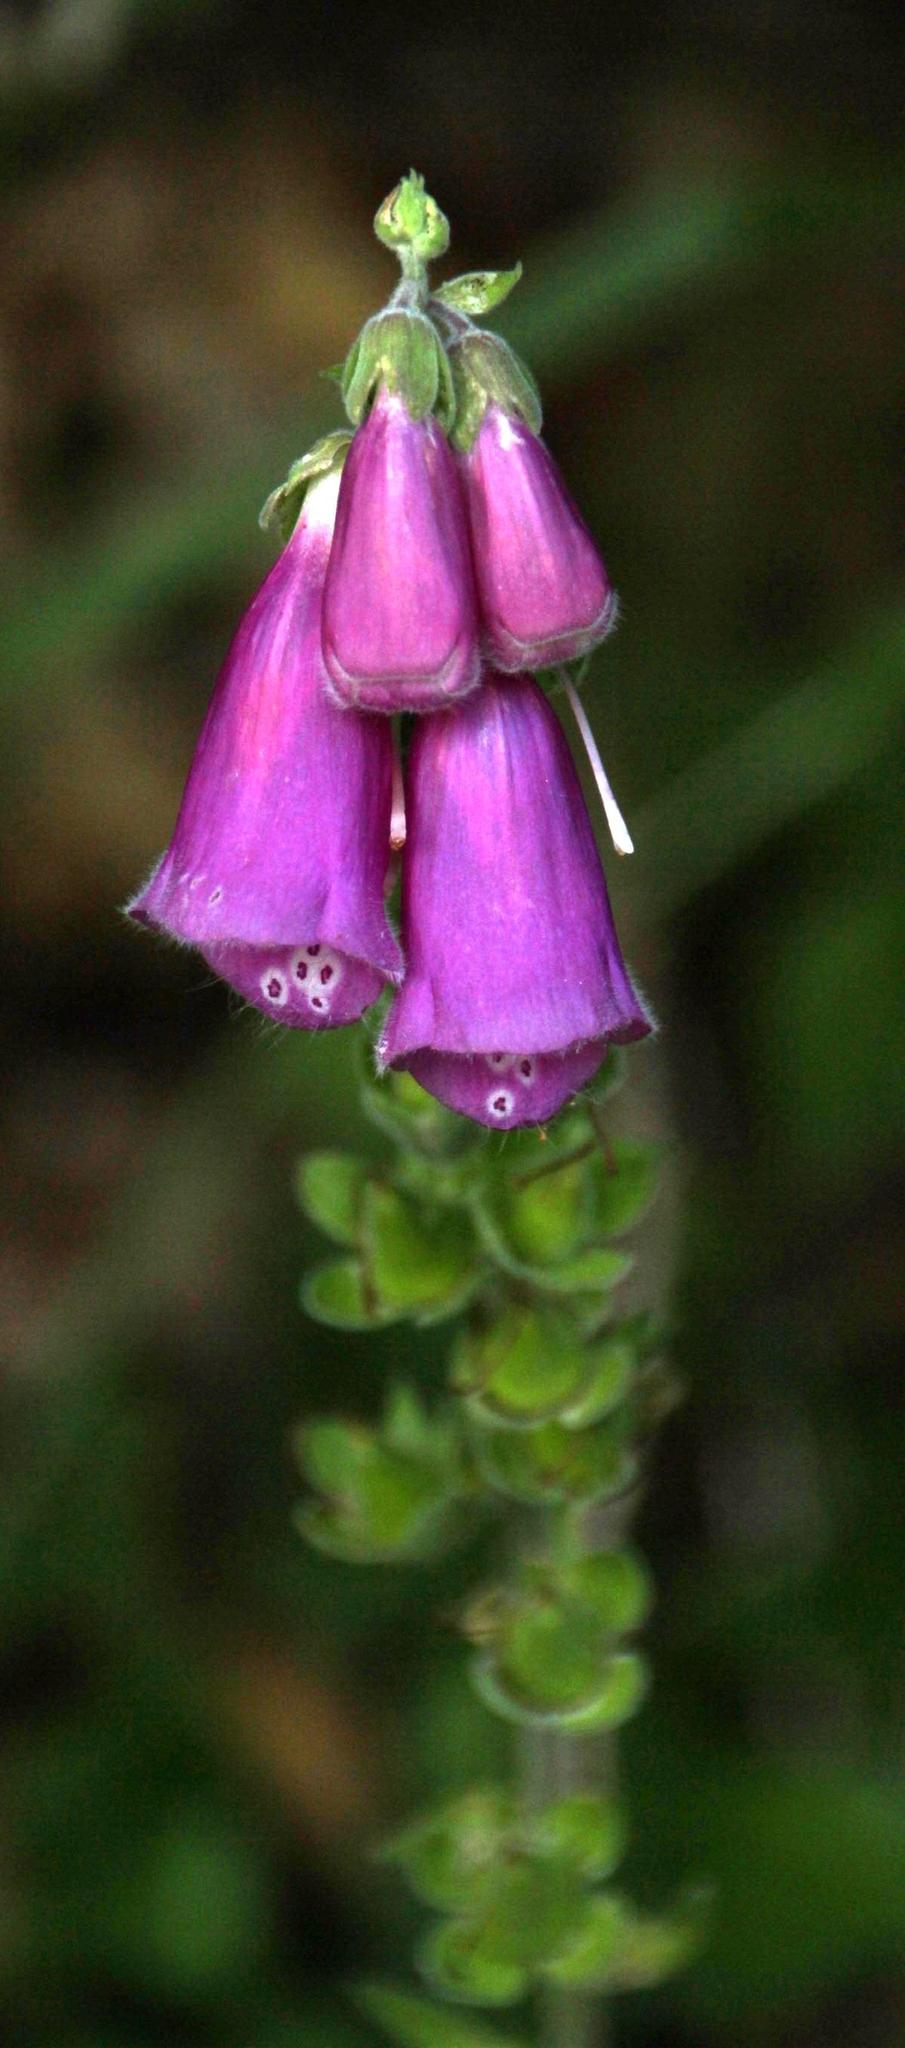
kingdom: Plantae
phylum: Tracheophyta
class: Magnoliopsida
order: Lamiales
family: Plantaginaceae
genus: Digitalis
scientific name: Digitalis purpurea
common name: Foxglove
